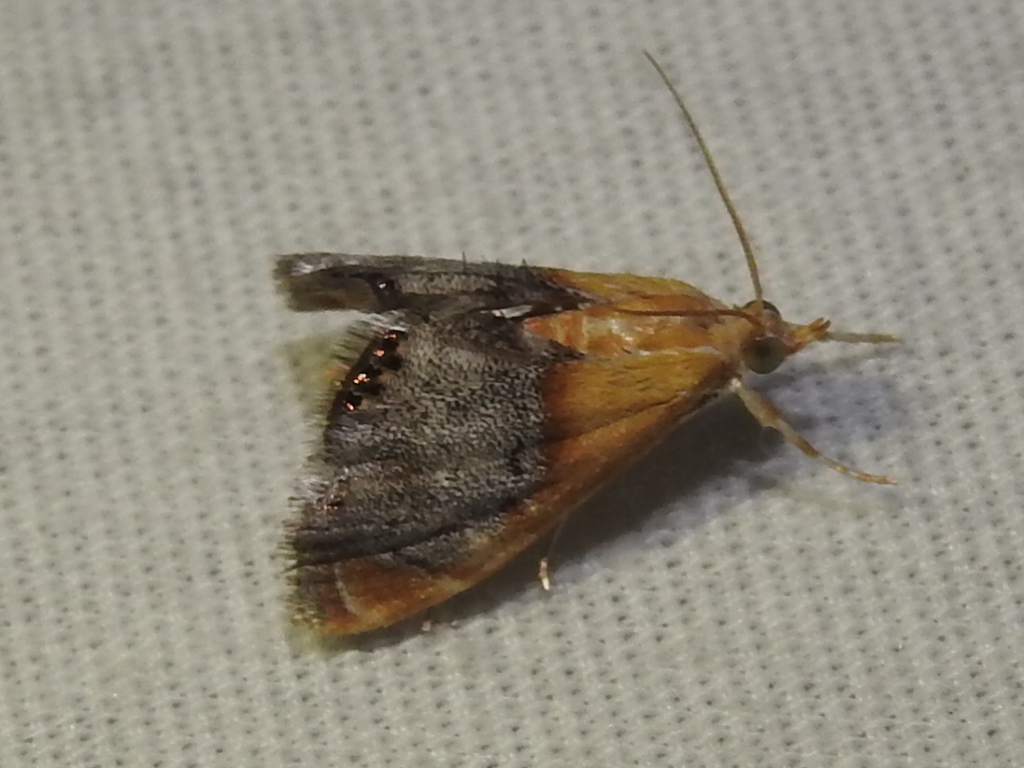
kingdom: Animalia
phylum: Arthropoda
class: Insecta
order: Lepidoptera
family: Crambidae
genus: Chalcoela
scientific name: Chalcoela iphitalis
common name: Sooty-winged chalcoela moth
